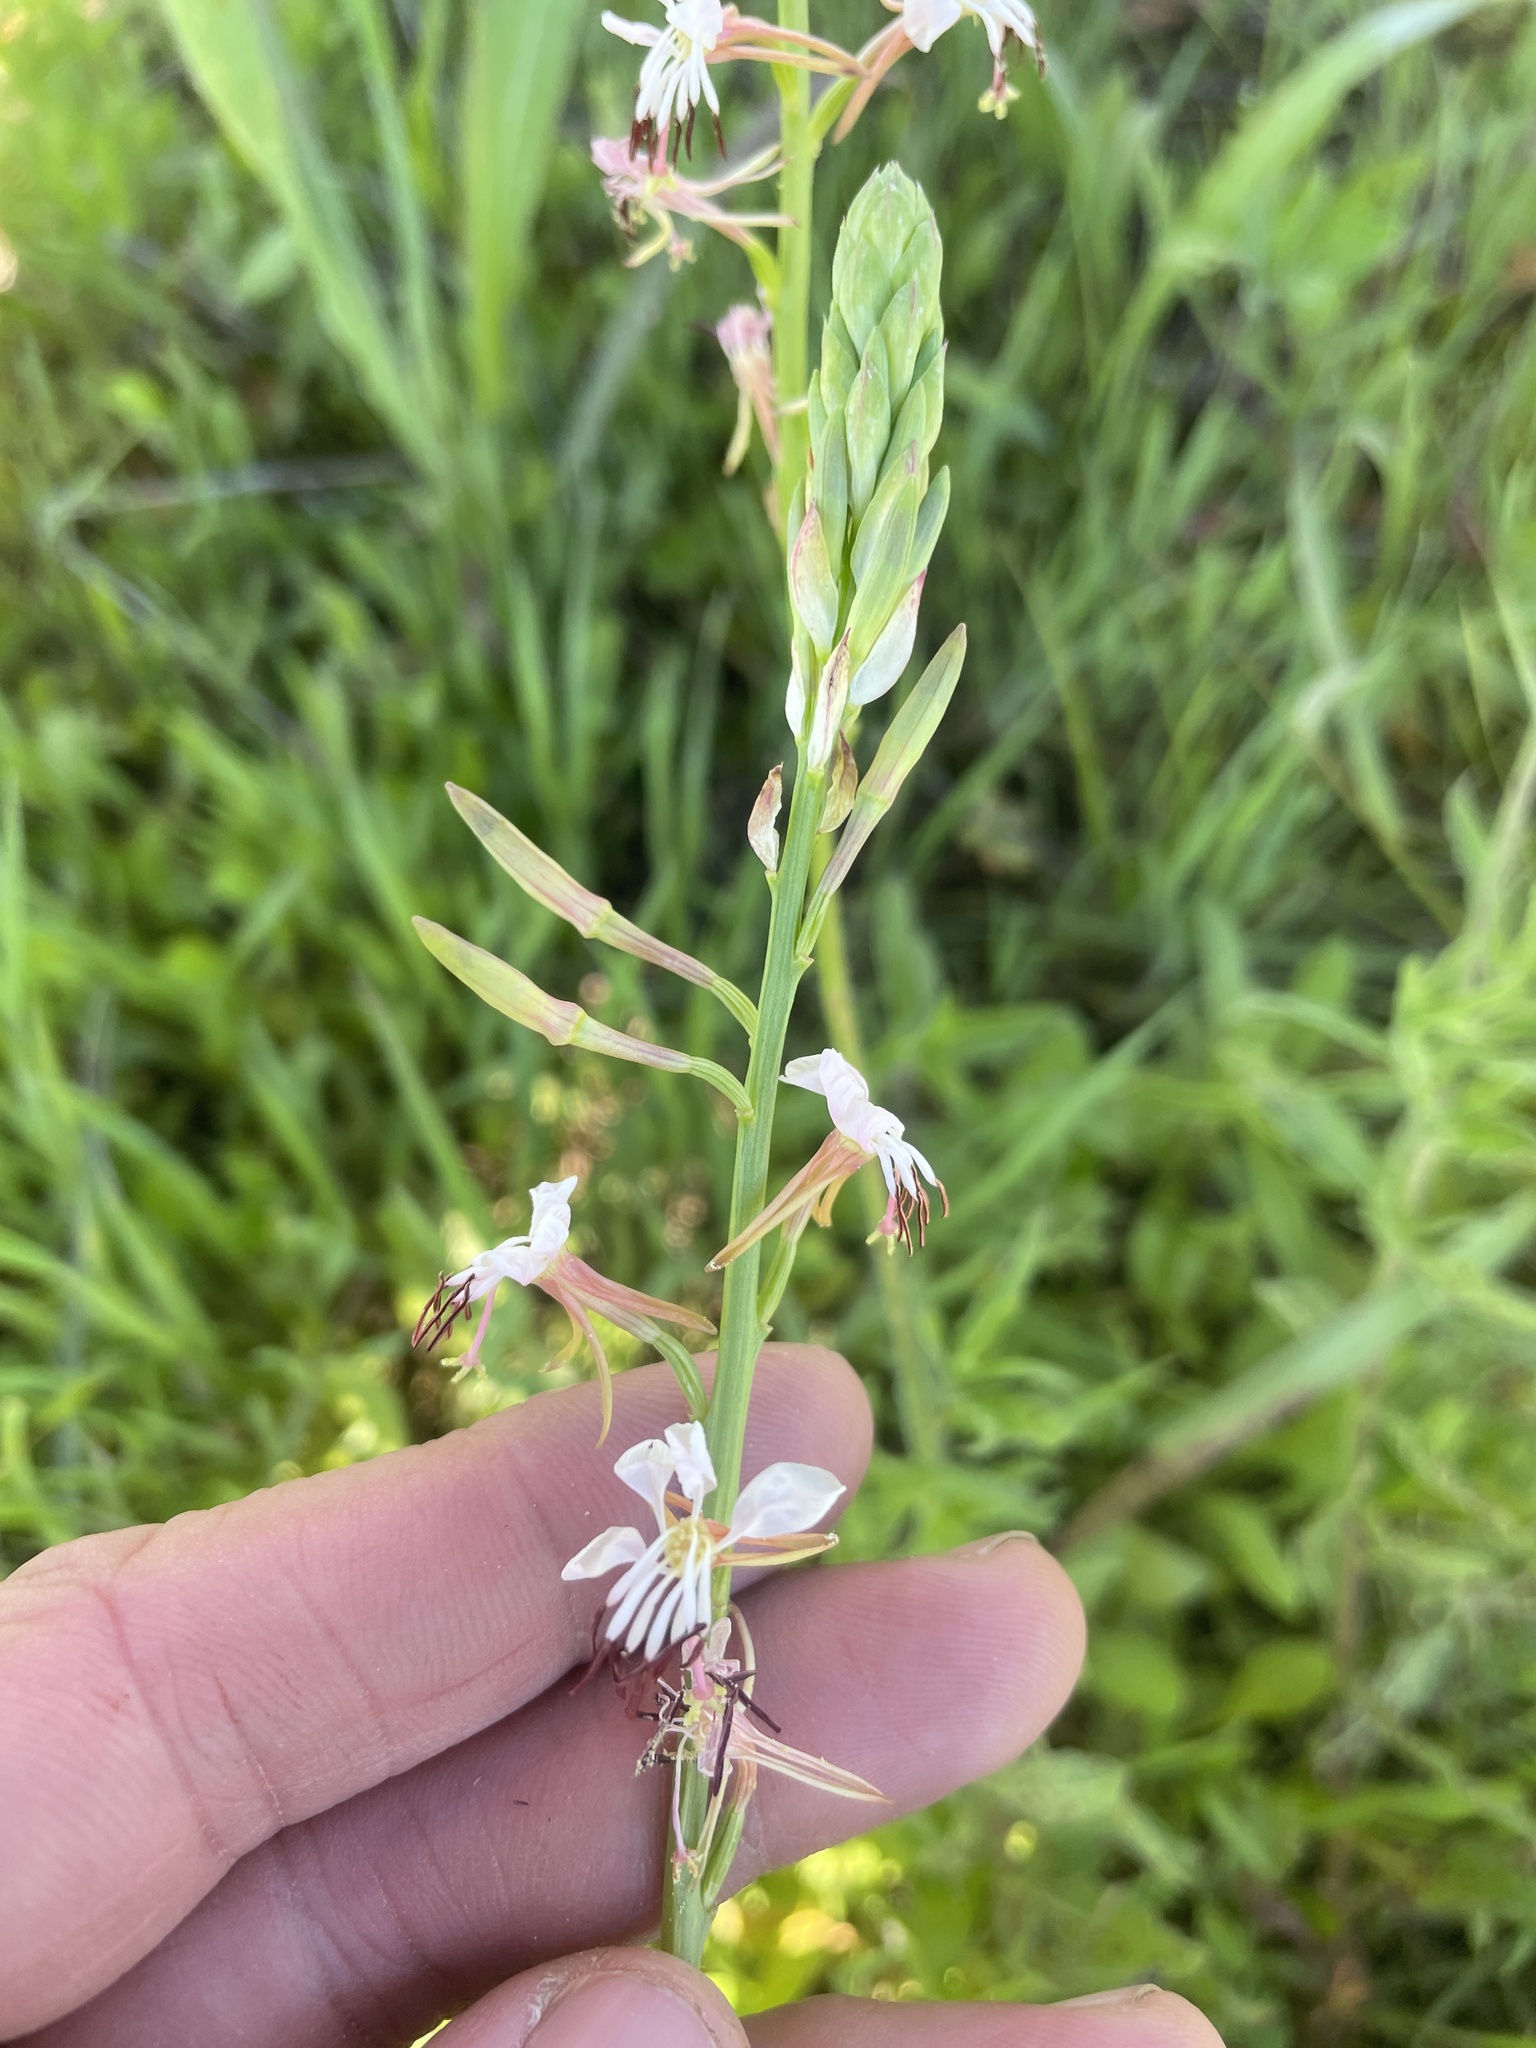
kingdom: Plantae
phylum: Tracheophyta
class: Magnoliopsida
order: Myrtales
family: Onagraceae
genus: Oenothera
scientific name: Oenothera suffulta
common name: Kisses
